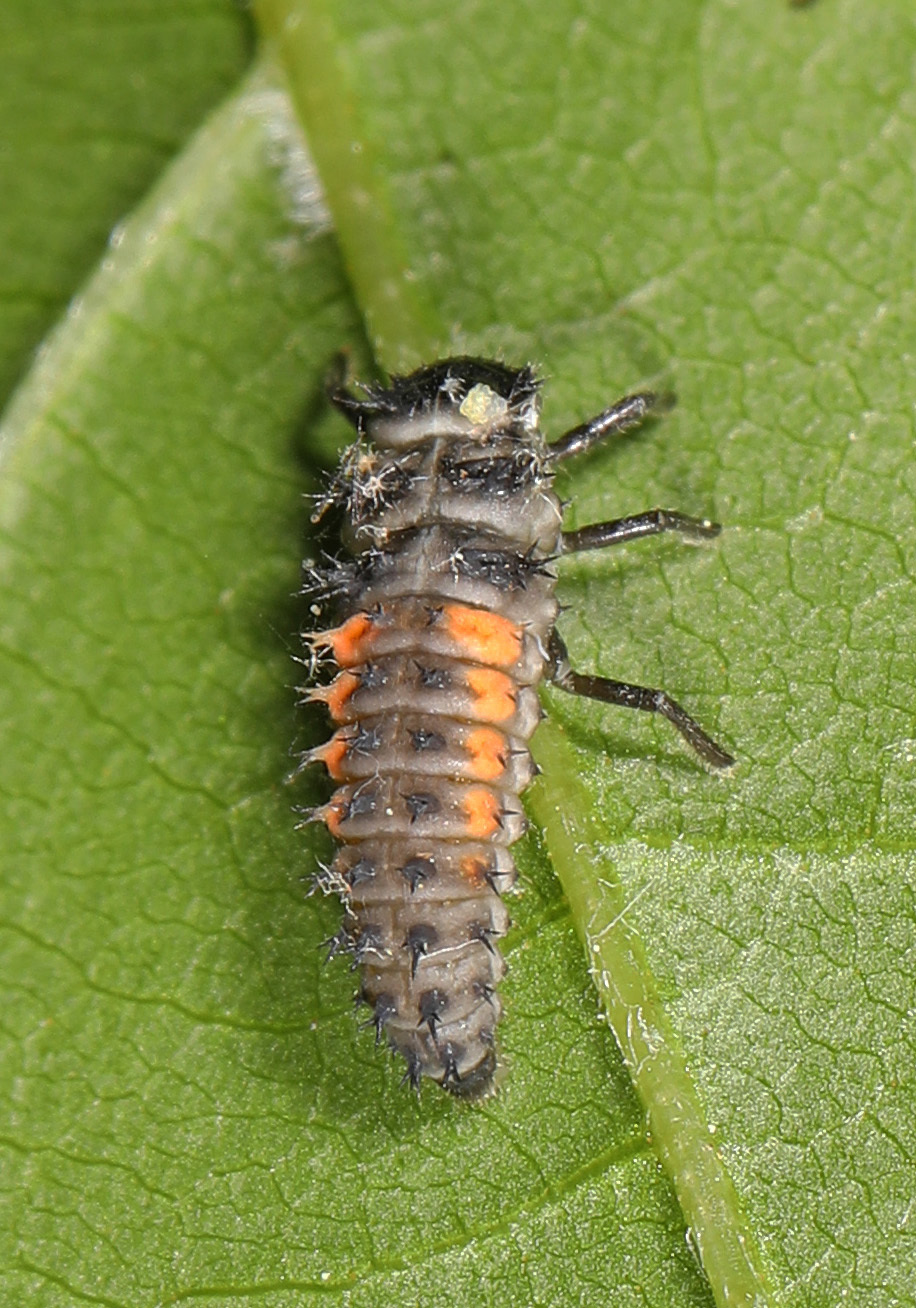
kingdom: Animalia
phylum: Arthropoda
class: Insecta
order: Coleoptera
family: Coccinellidae
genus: Harmonia
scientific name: Harmonia axyridis
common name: Harlequin ladybird
